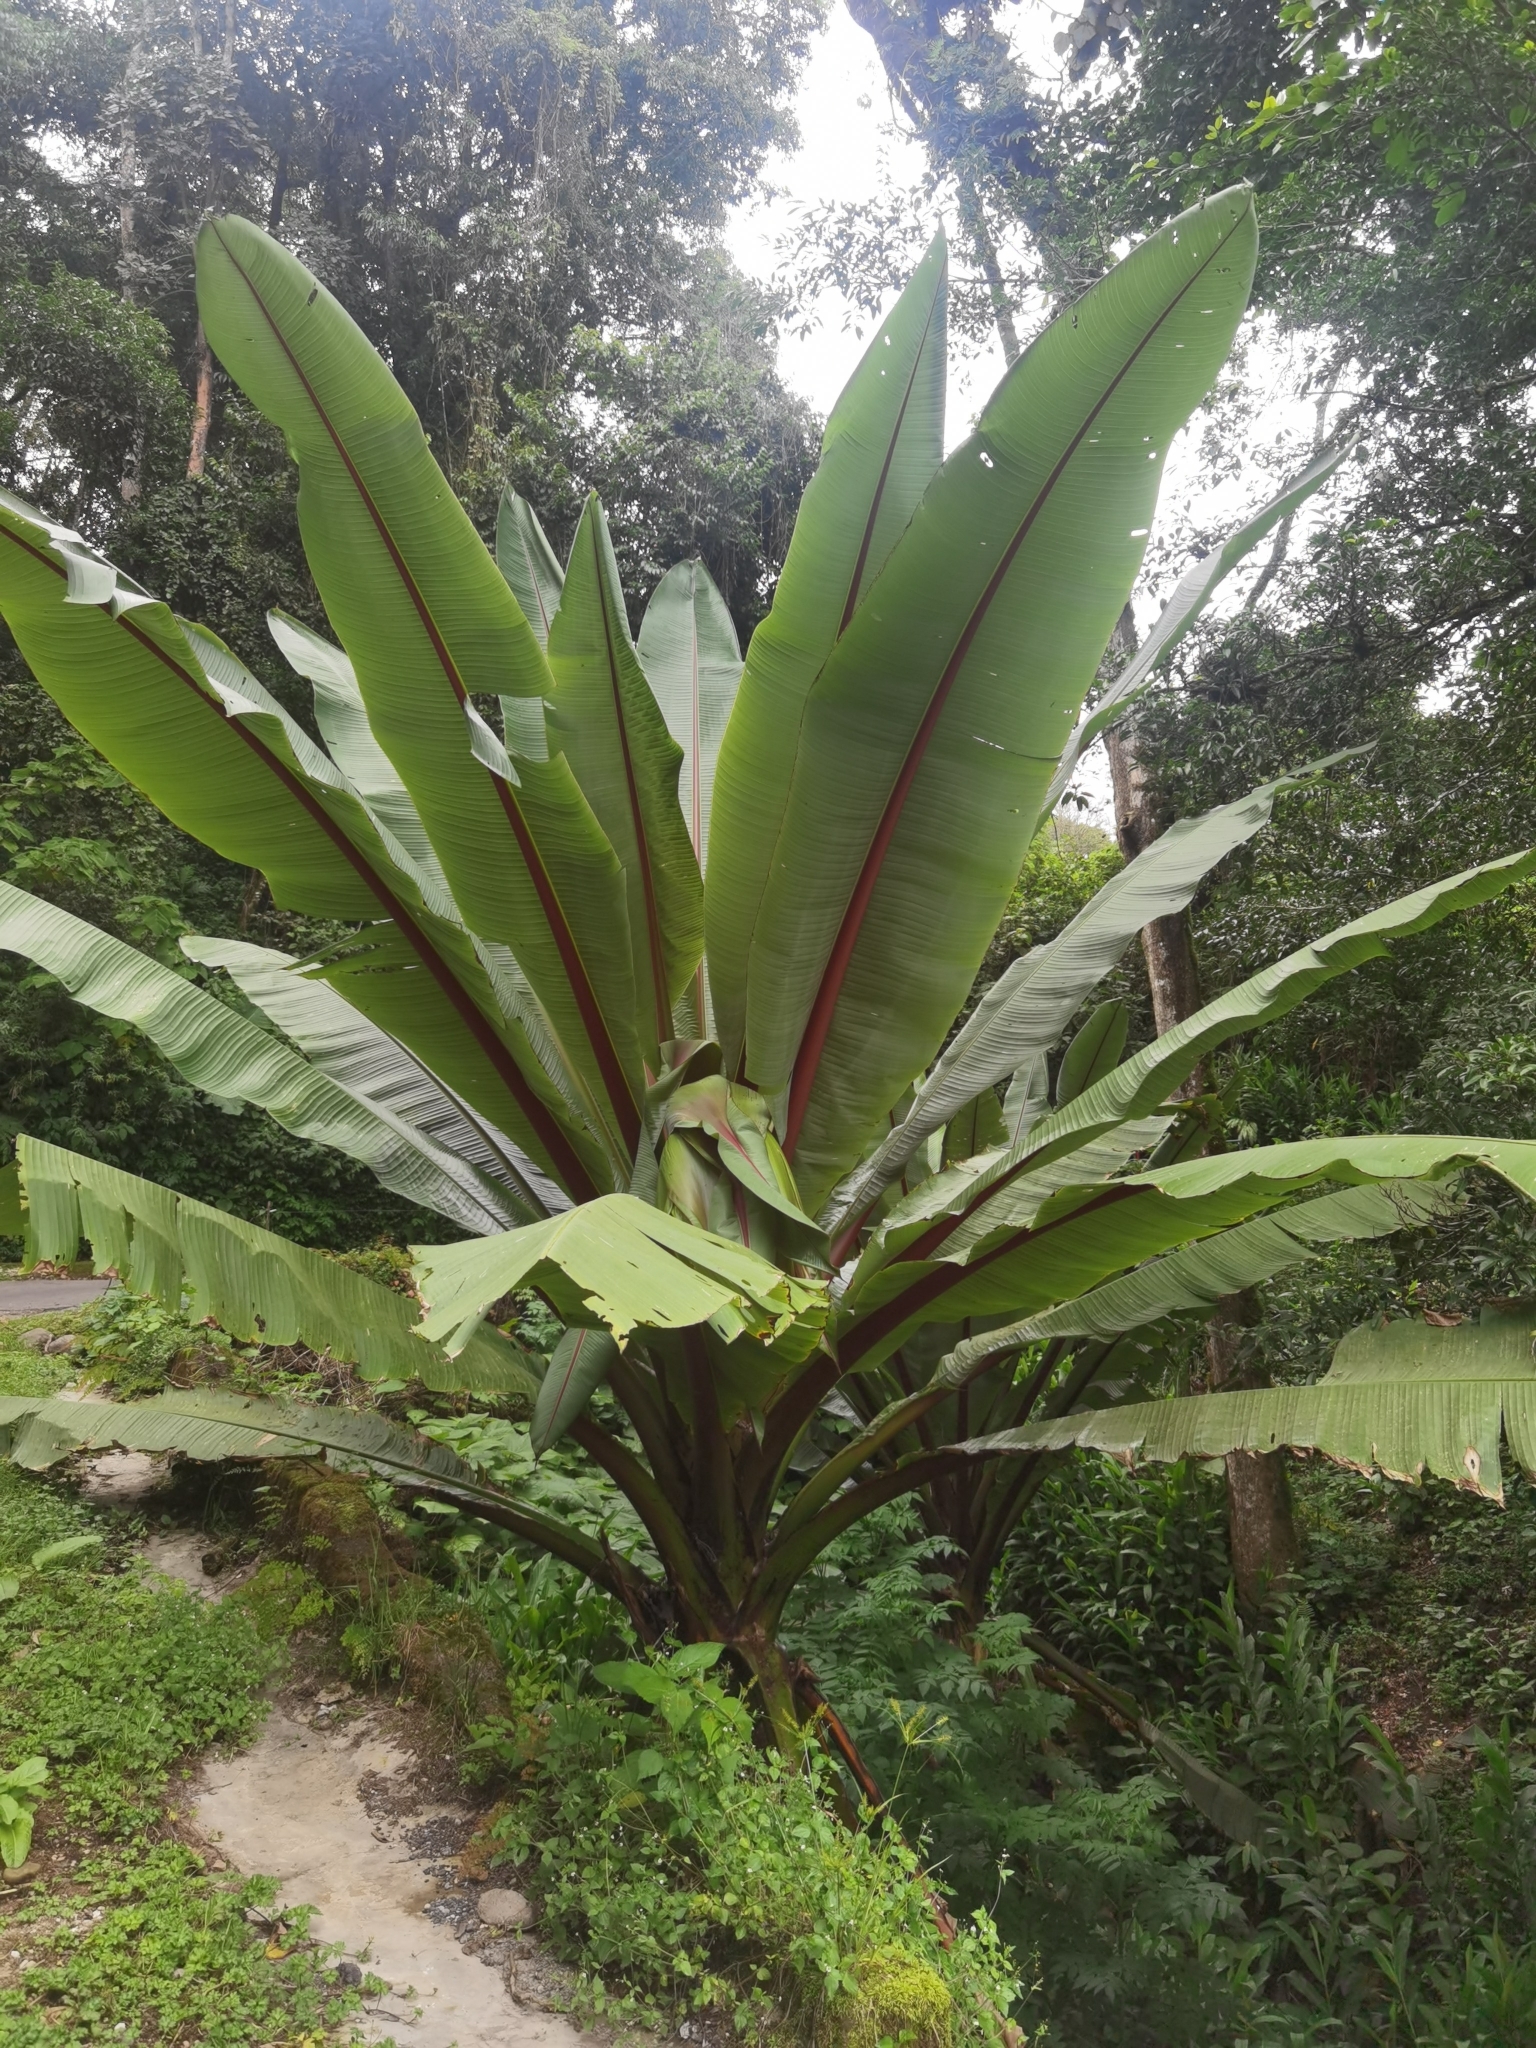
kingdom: Plantae
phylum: Tracheophyta
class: Liliopsida
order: Zingiberales
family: Musaceae
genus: Ensete
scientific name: Ensete ventricosum
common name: Abyssinian banana
